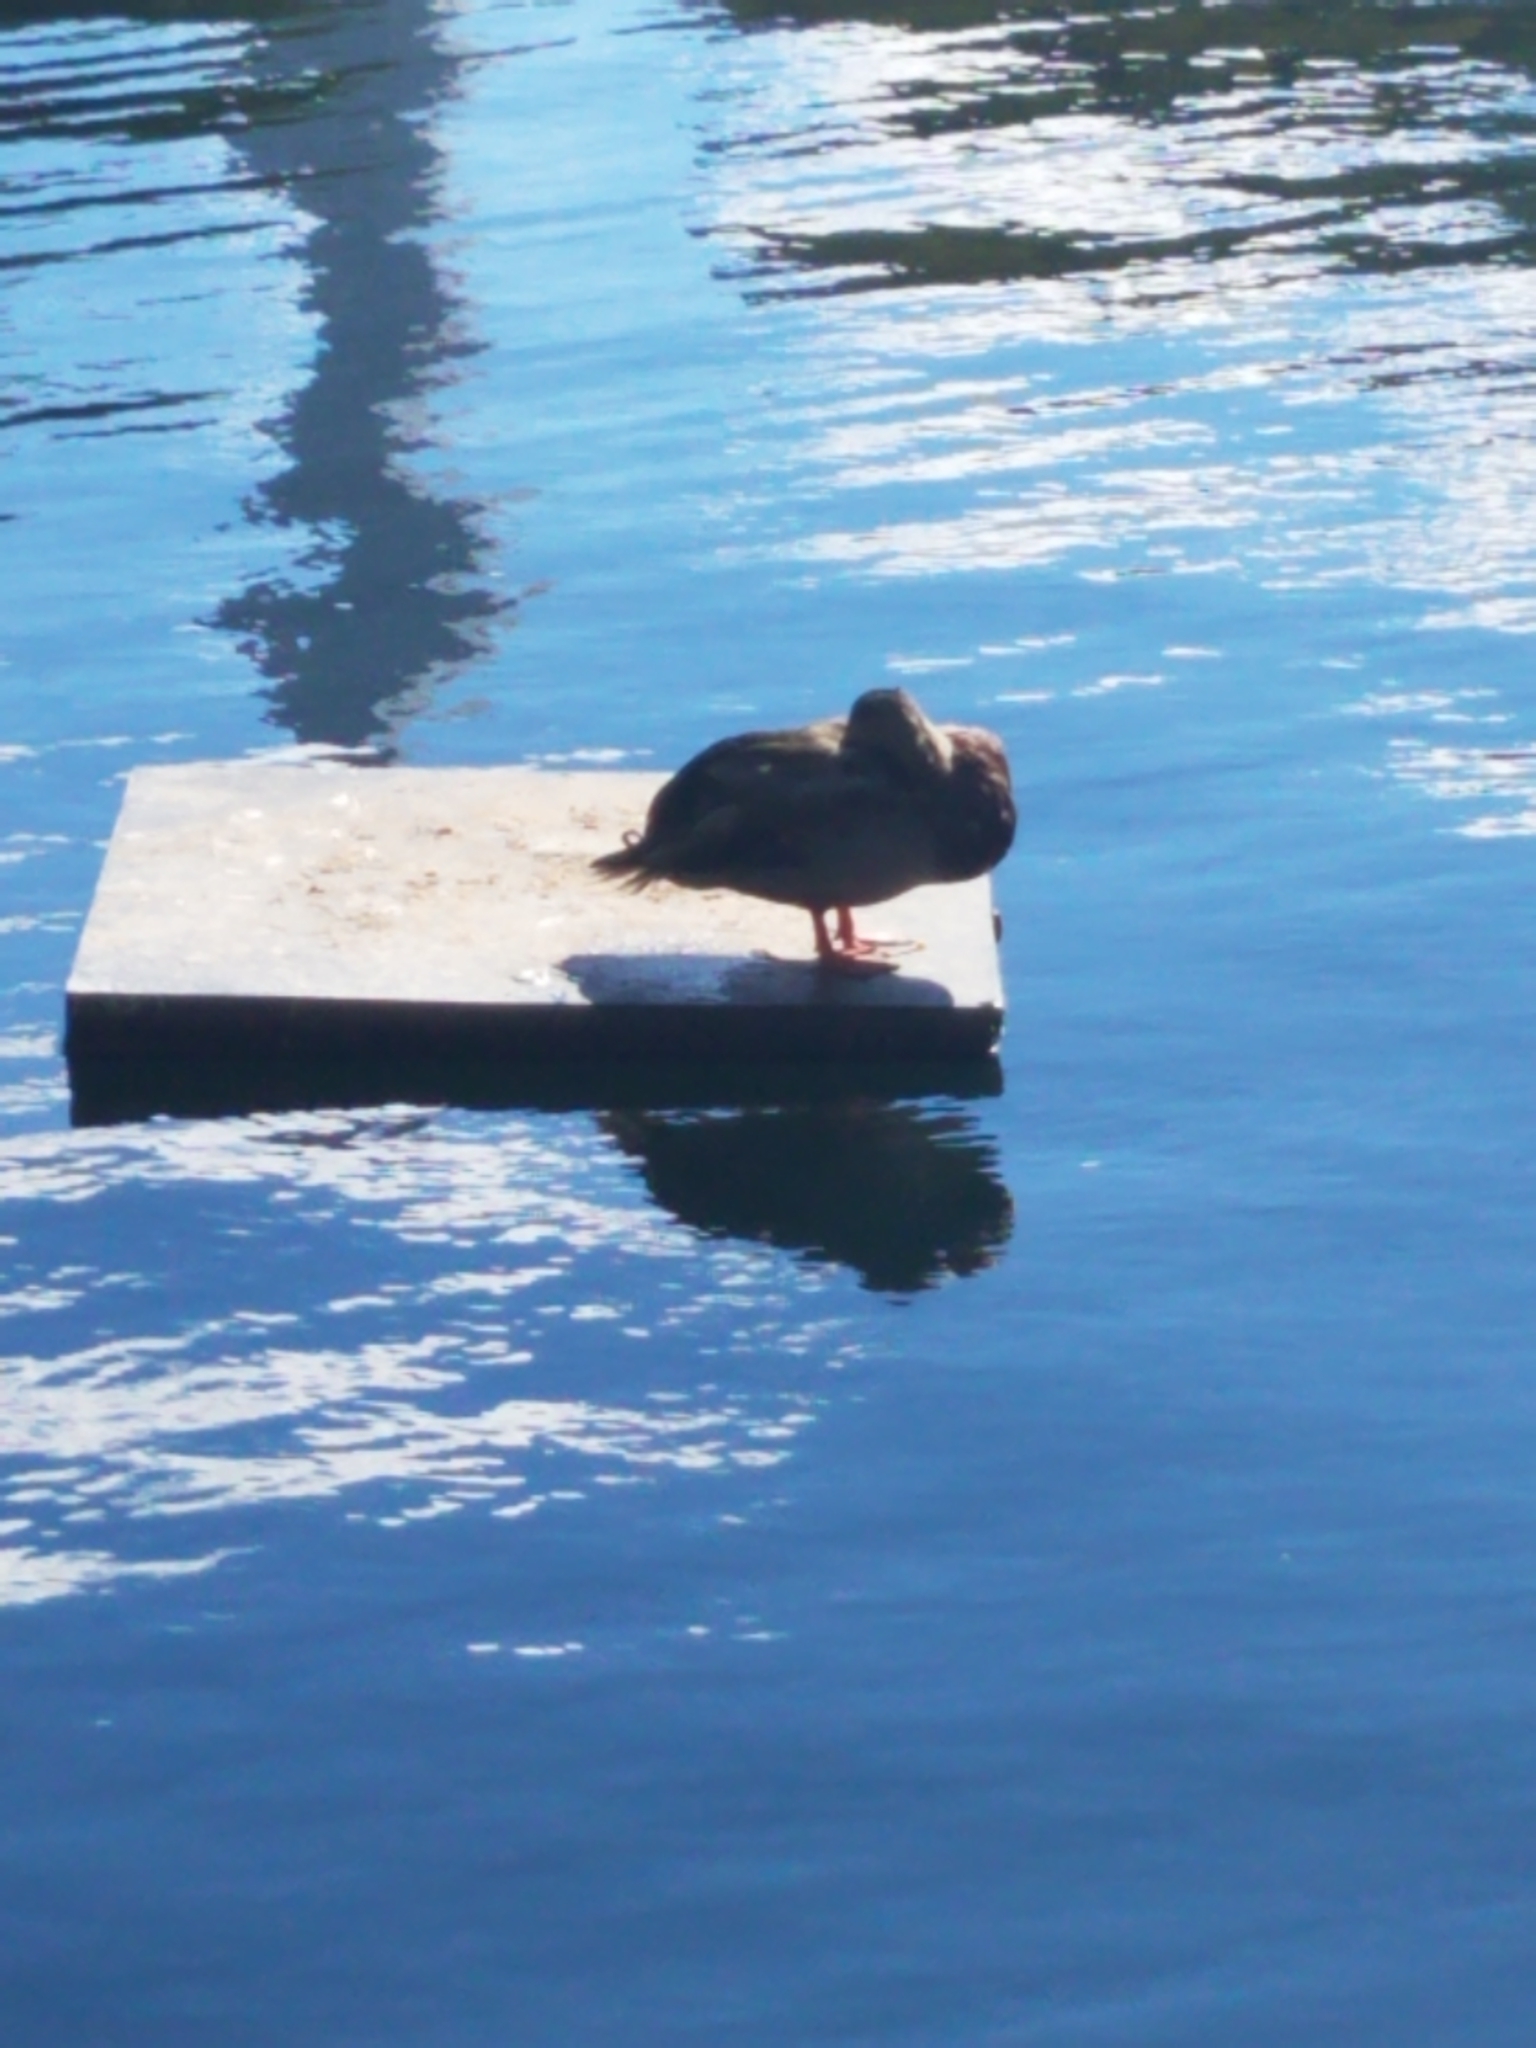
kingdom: Animalia
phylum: Chordata
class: Aves
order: Anseriformes
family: Anatidae
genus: Anas
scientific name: Anas platyrhynchos
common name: Mallard
